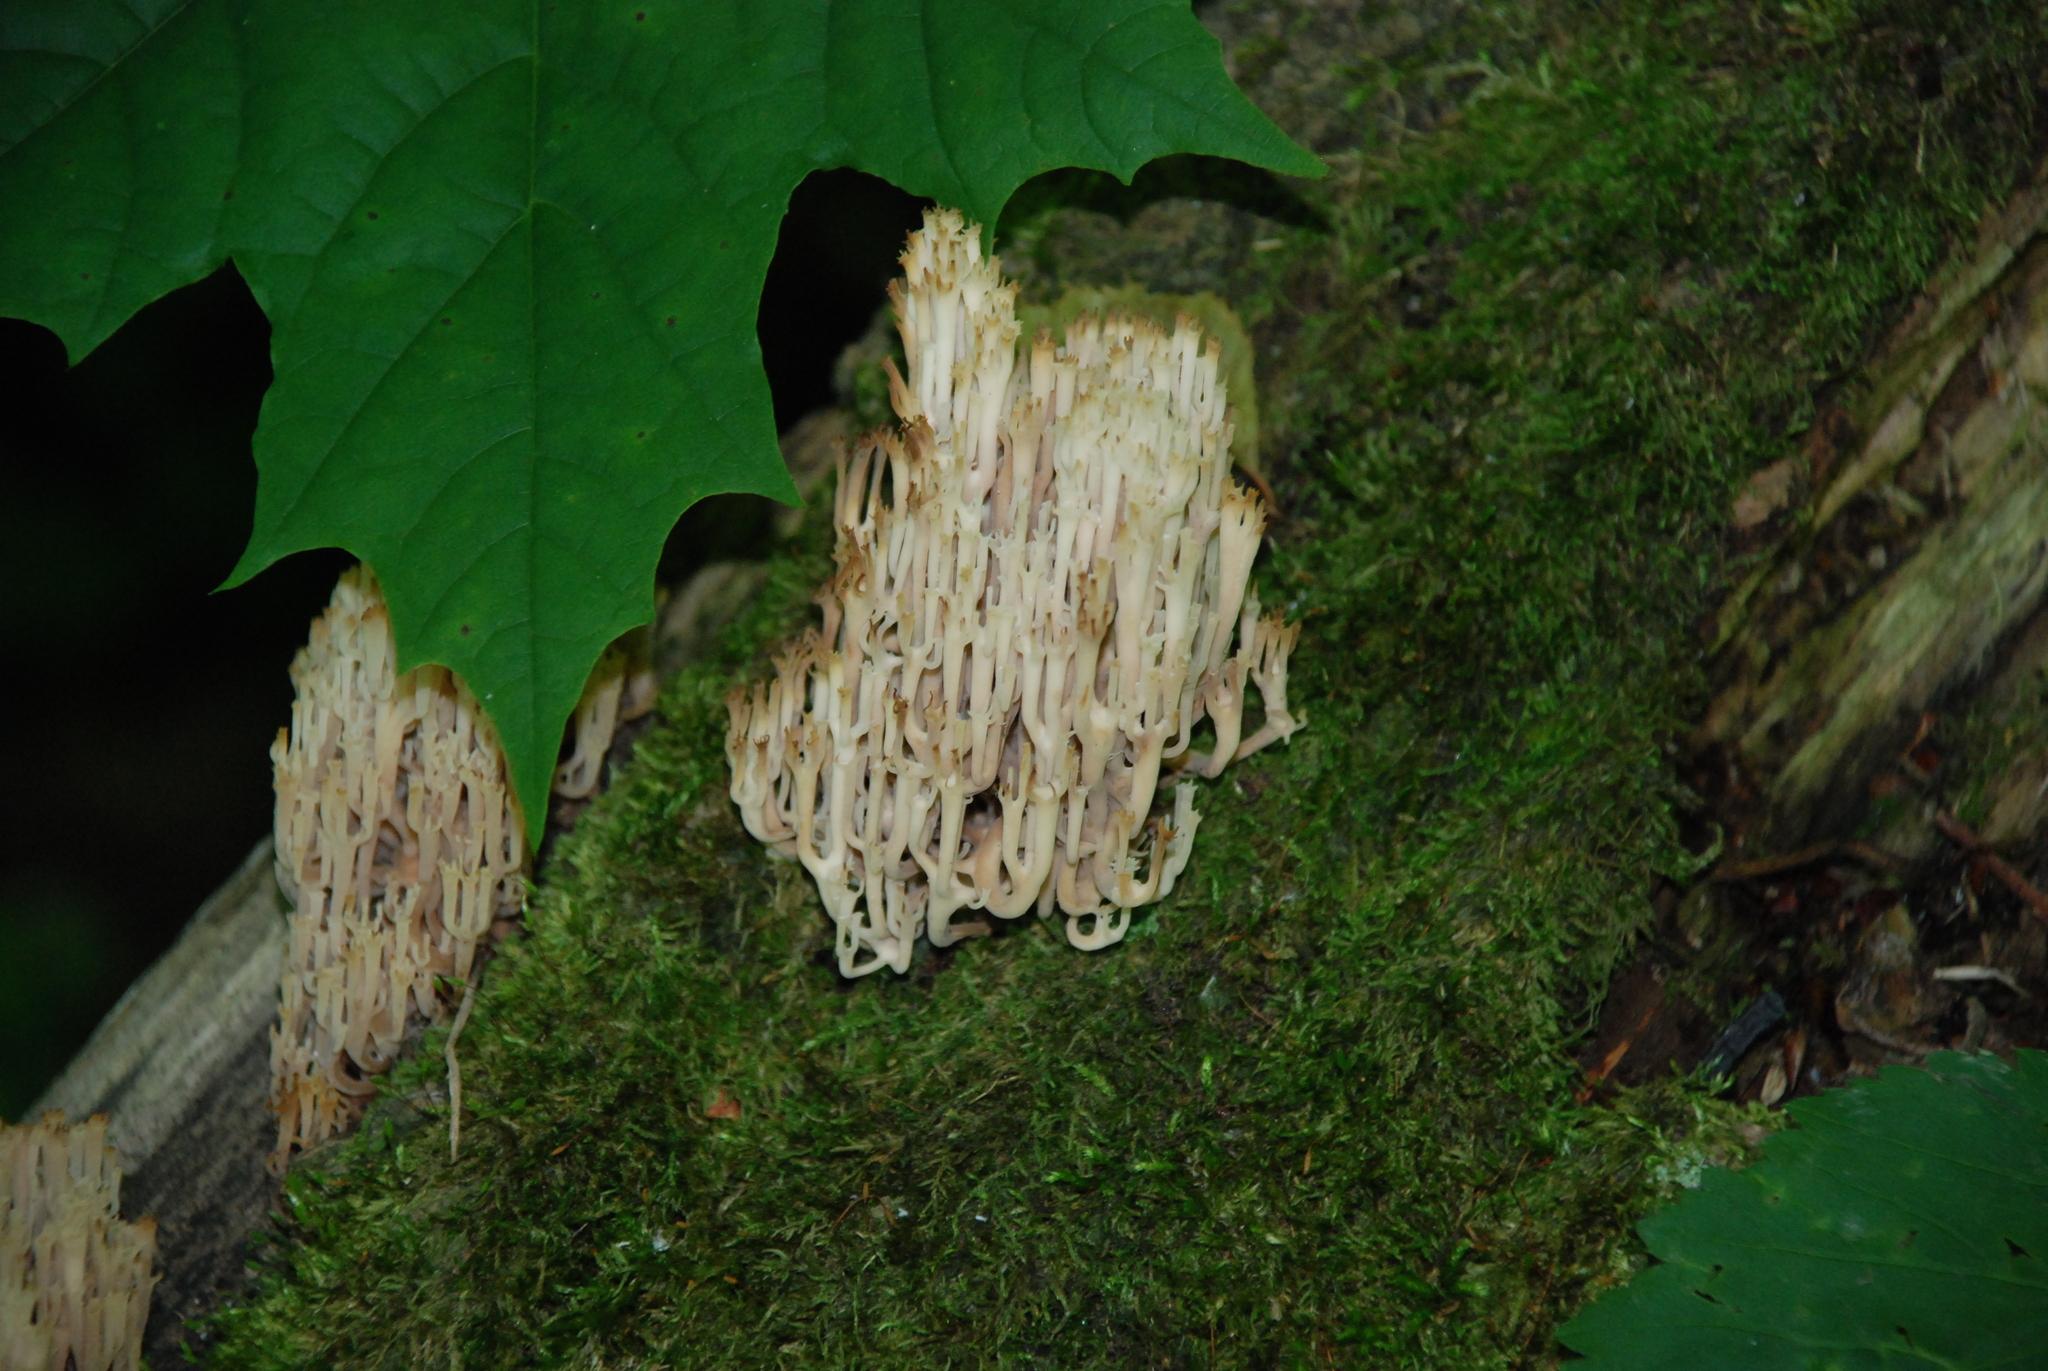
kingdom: Fungi
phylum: Basidiomycota
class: Agaricomycetes
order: Russulales
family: Auriscalpiaceae
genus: Artomyces
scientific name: Artomyces pyxidatus
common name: Crown-tipped coral fungus
